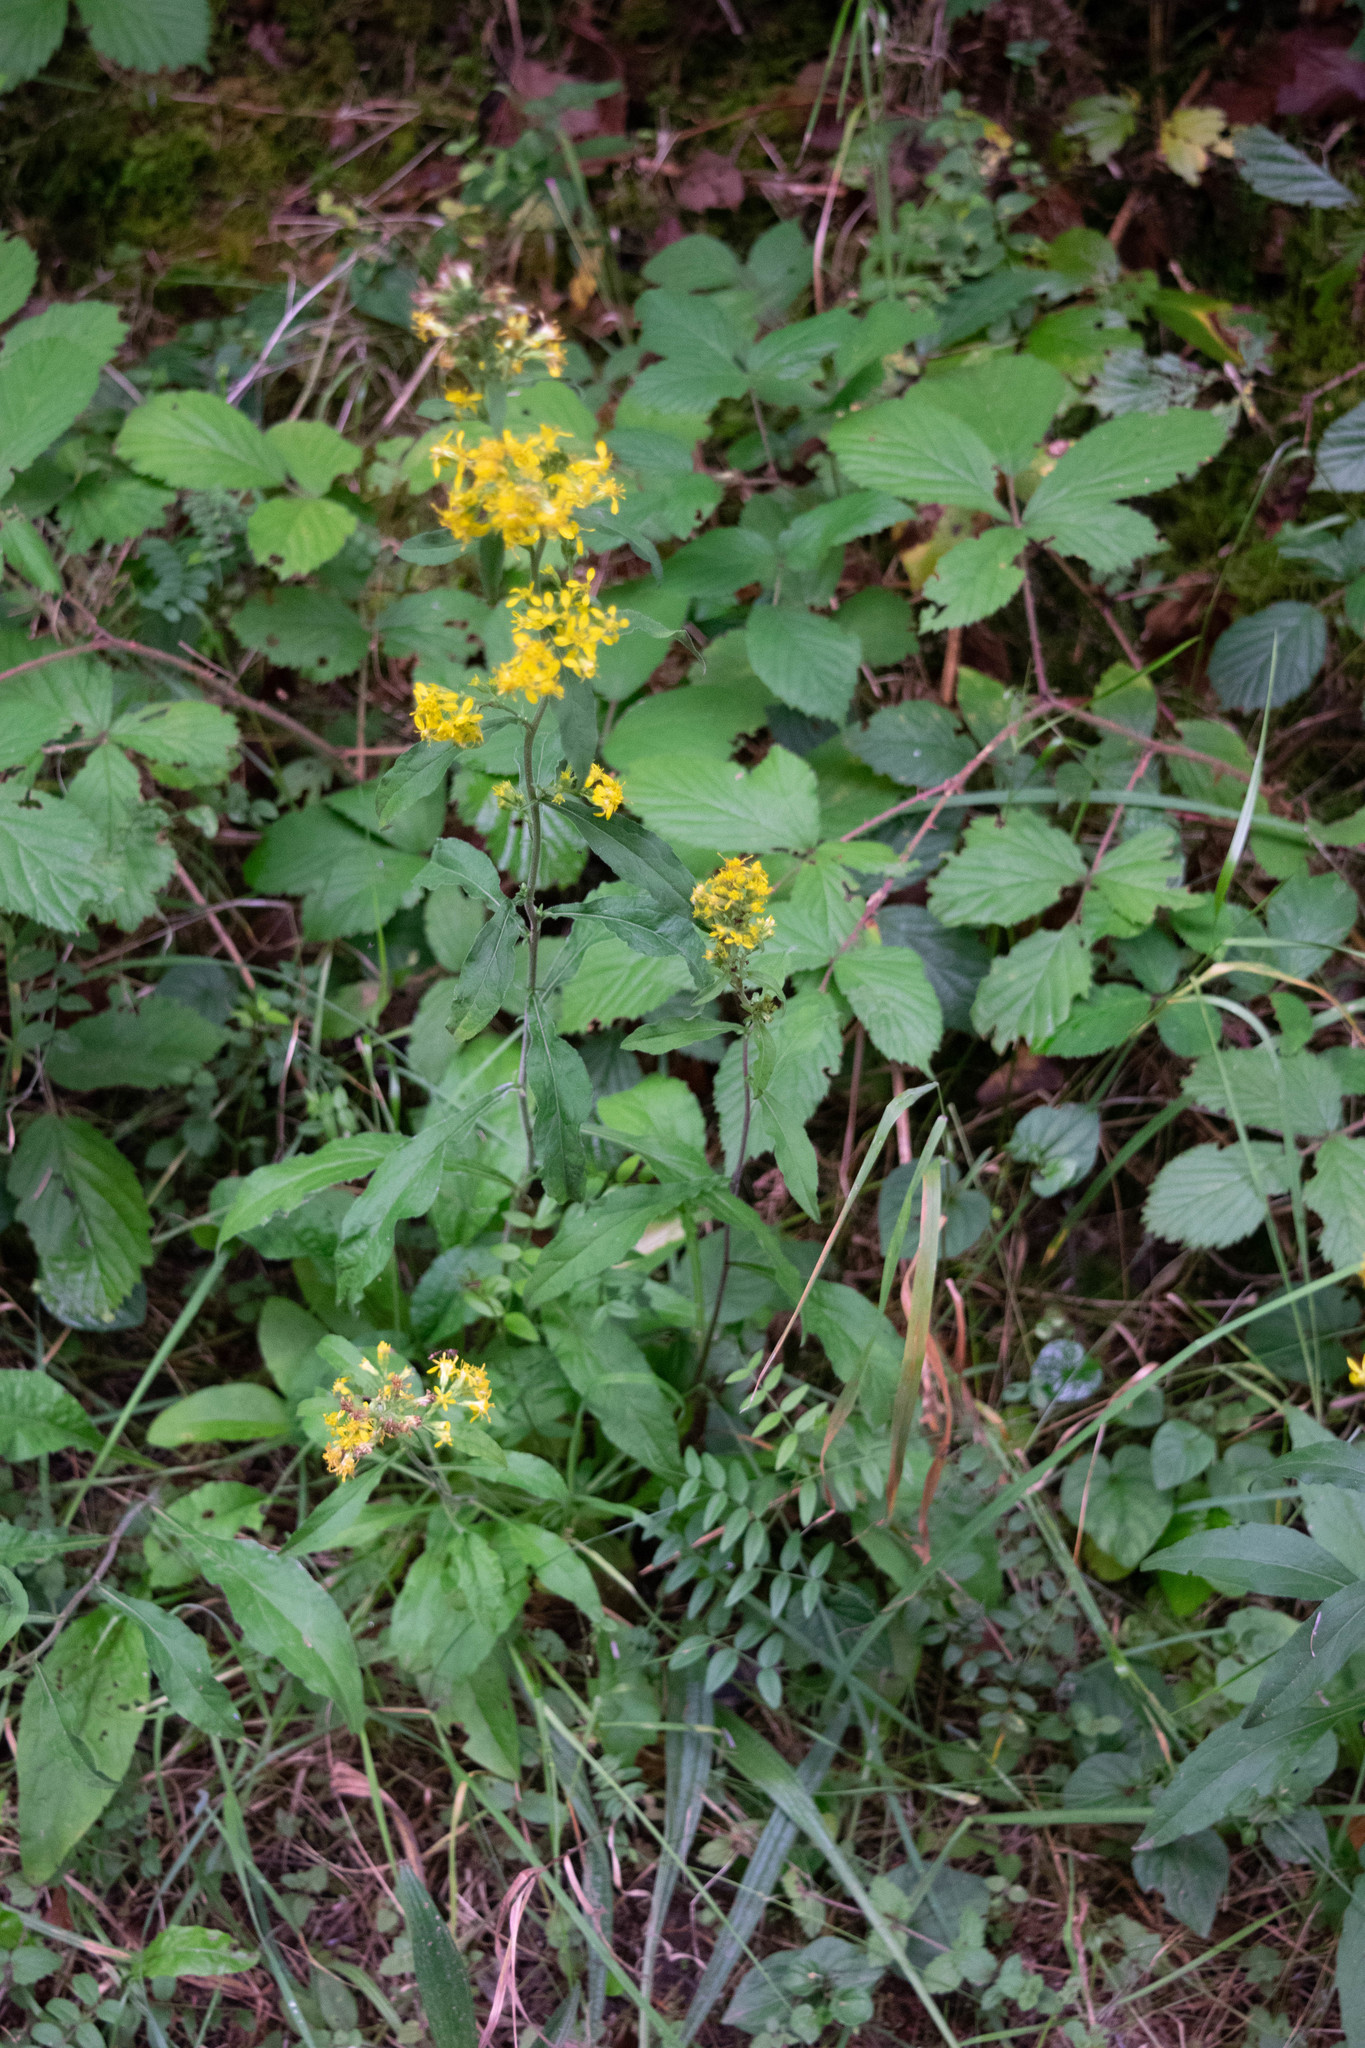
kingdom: Plantae
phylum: Tracheophyta
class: Magnoliopsida
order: Asterales
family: Asteraceae
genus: Solidago
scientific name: Solidago virgaurea
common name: Goldenrod
